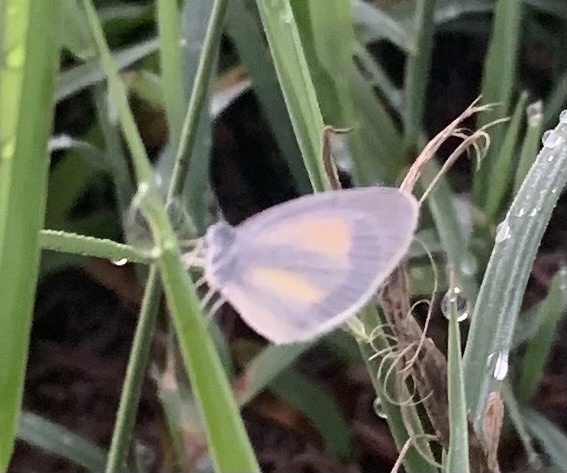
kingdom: Animalia
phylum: Arthropoda
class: Insecta
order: Lepidoptera
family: Pieridae
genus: Eurema
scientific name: Eurema daira
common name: Barred sulphur
